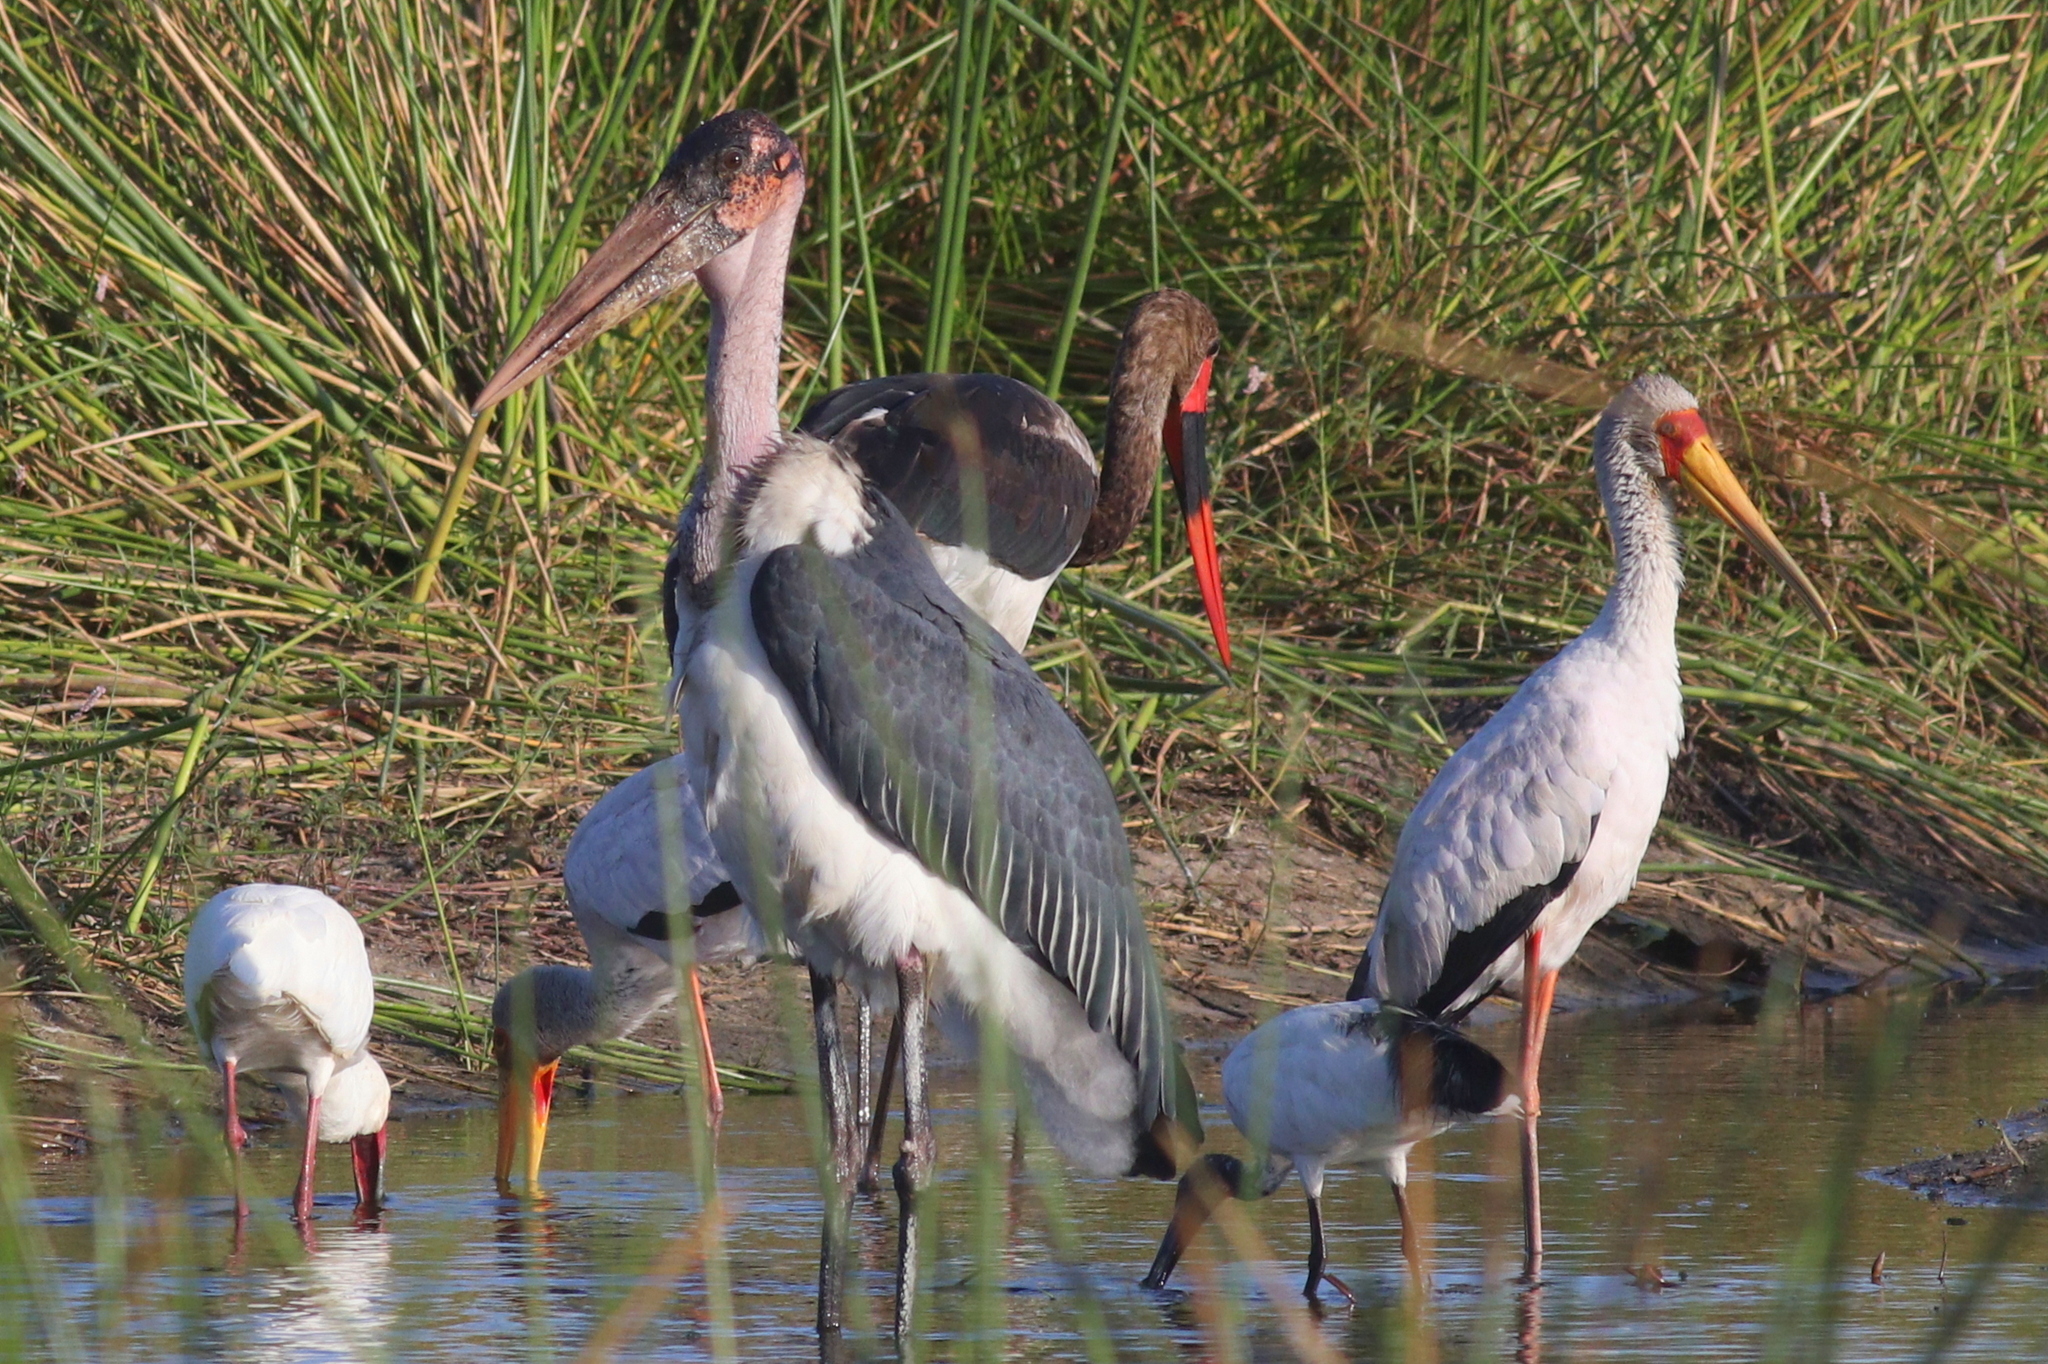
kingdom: Animalia
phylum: Chordata
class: Aves
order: Ciconiiformes
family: Ciconiidae
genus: Leptoptilos
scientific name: Leptoptilos crumenifer
